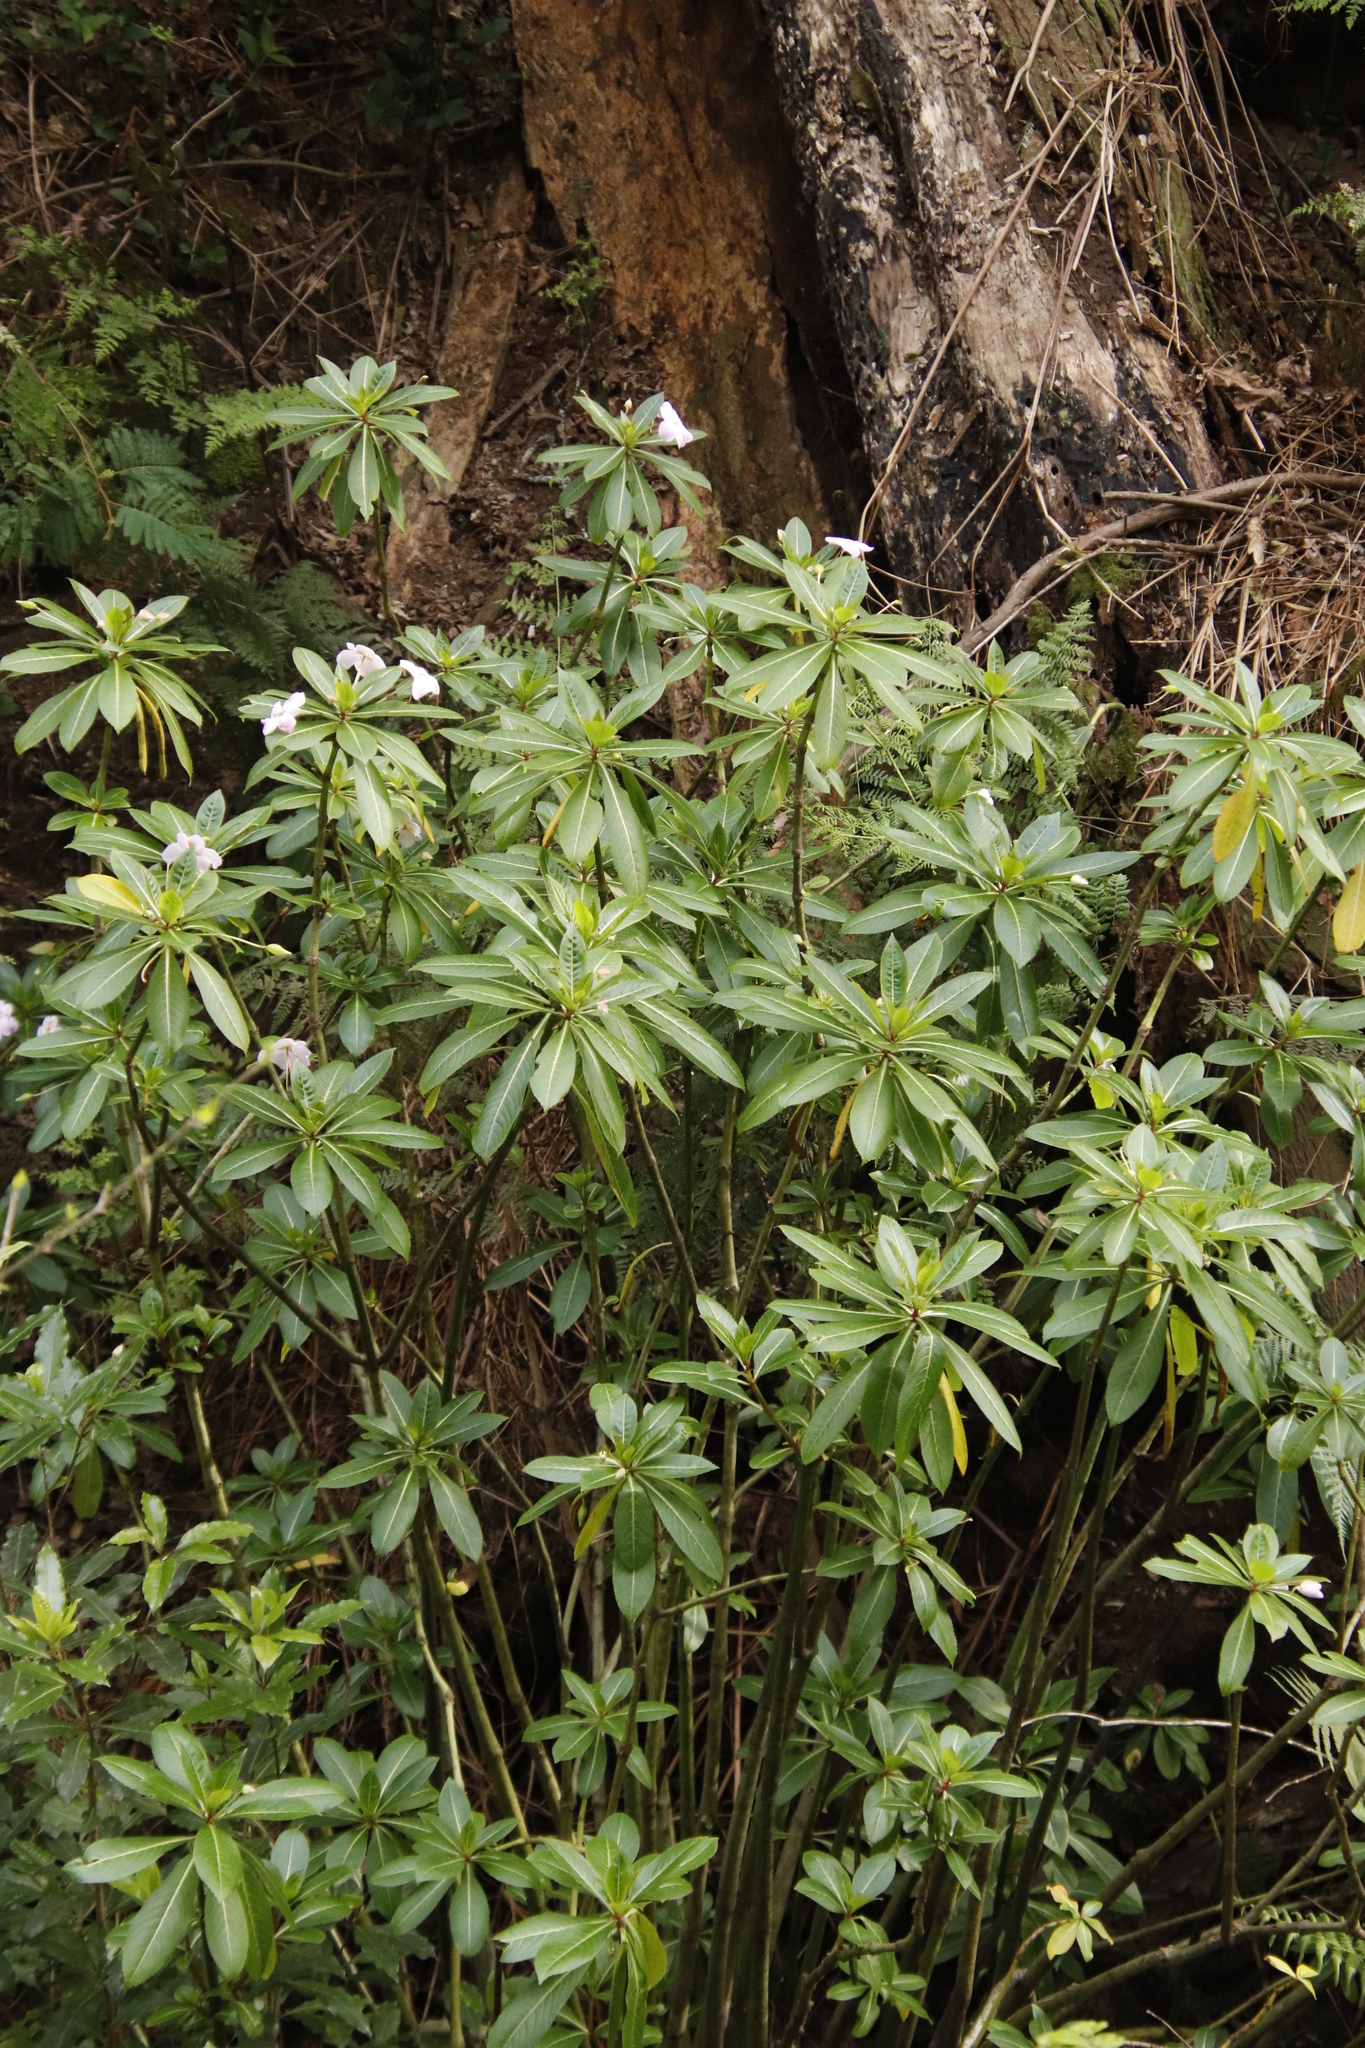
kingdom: Plantae
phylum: Tracheophyta
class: Magnoliopsida
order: Ericales
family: Balsaminaceae
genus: Impatiens
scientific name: Impatiens sodenii
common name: Oliver's touch-me-not
